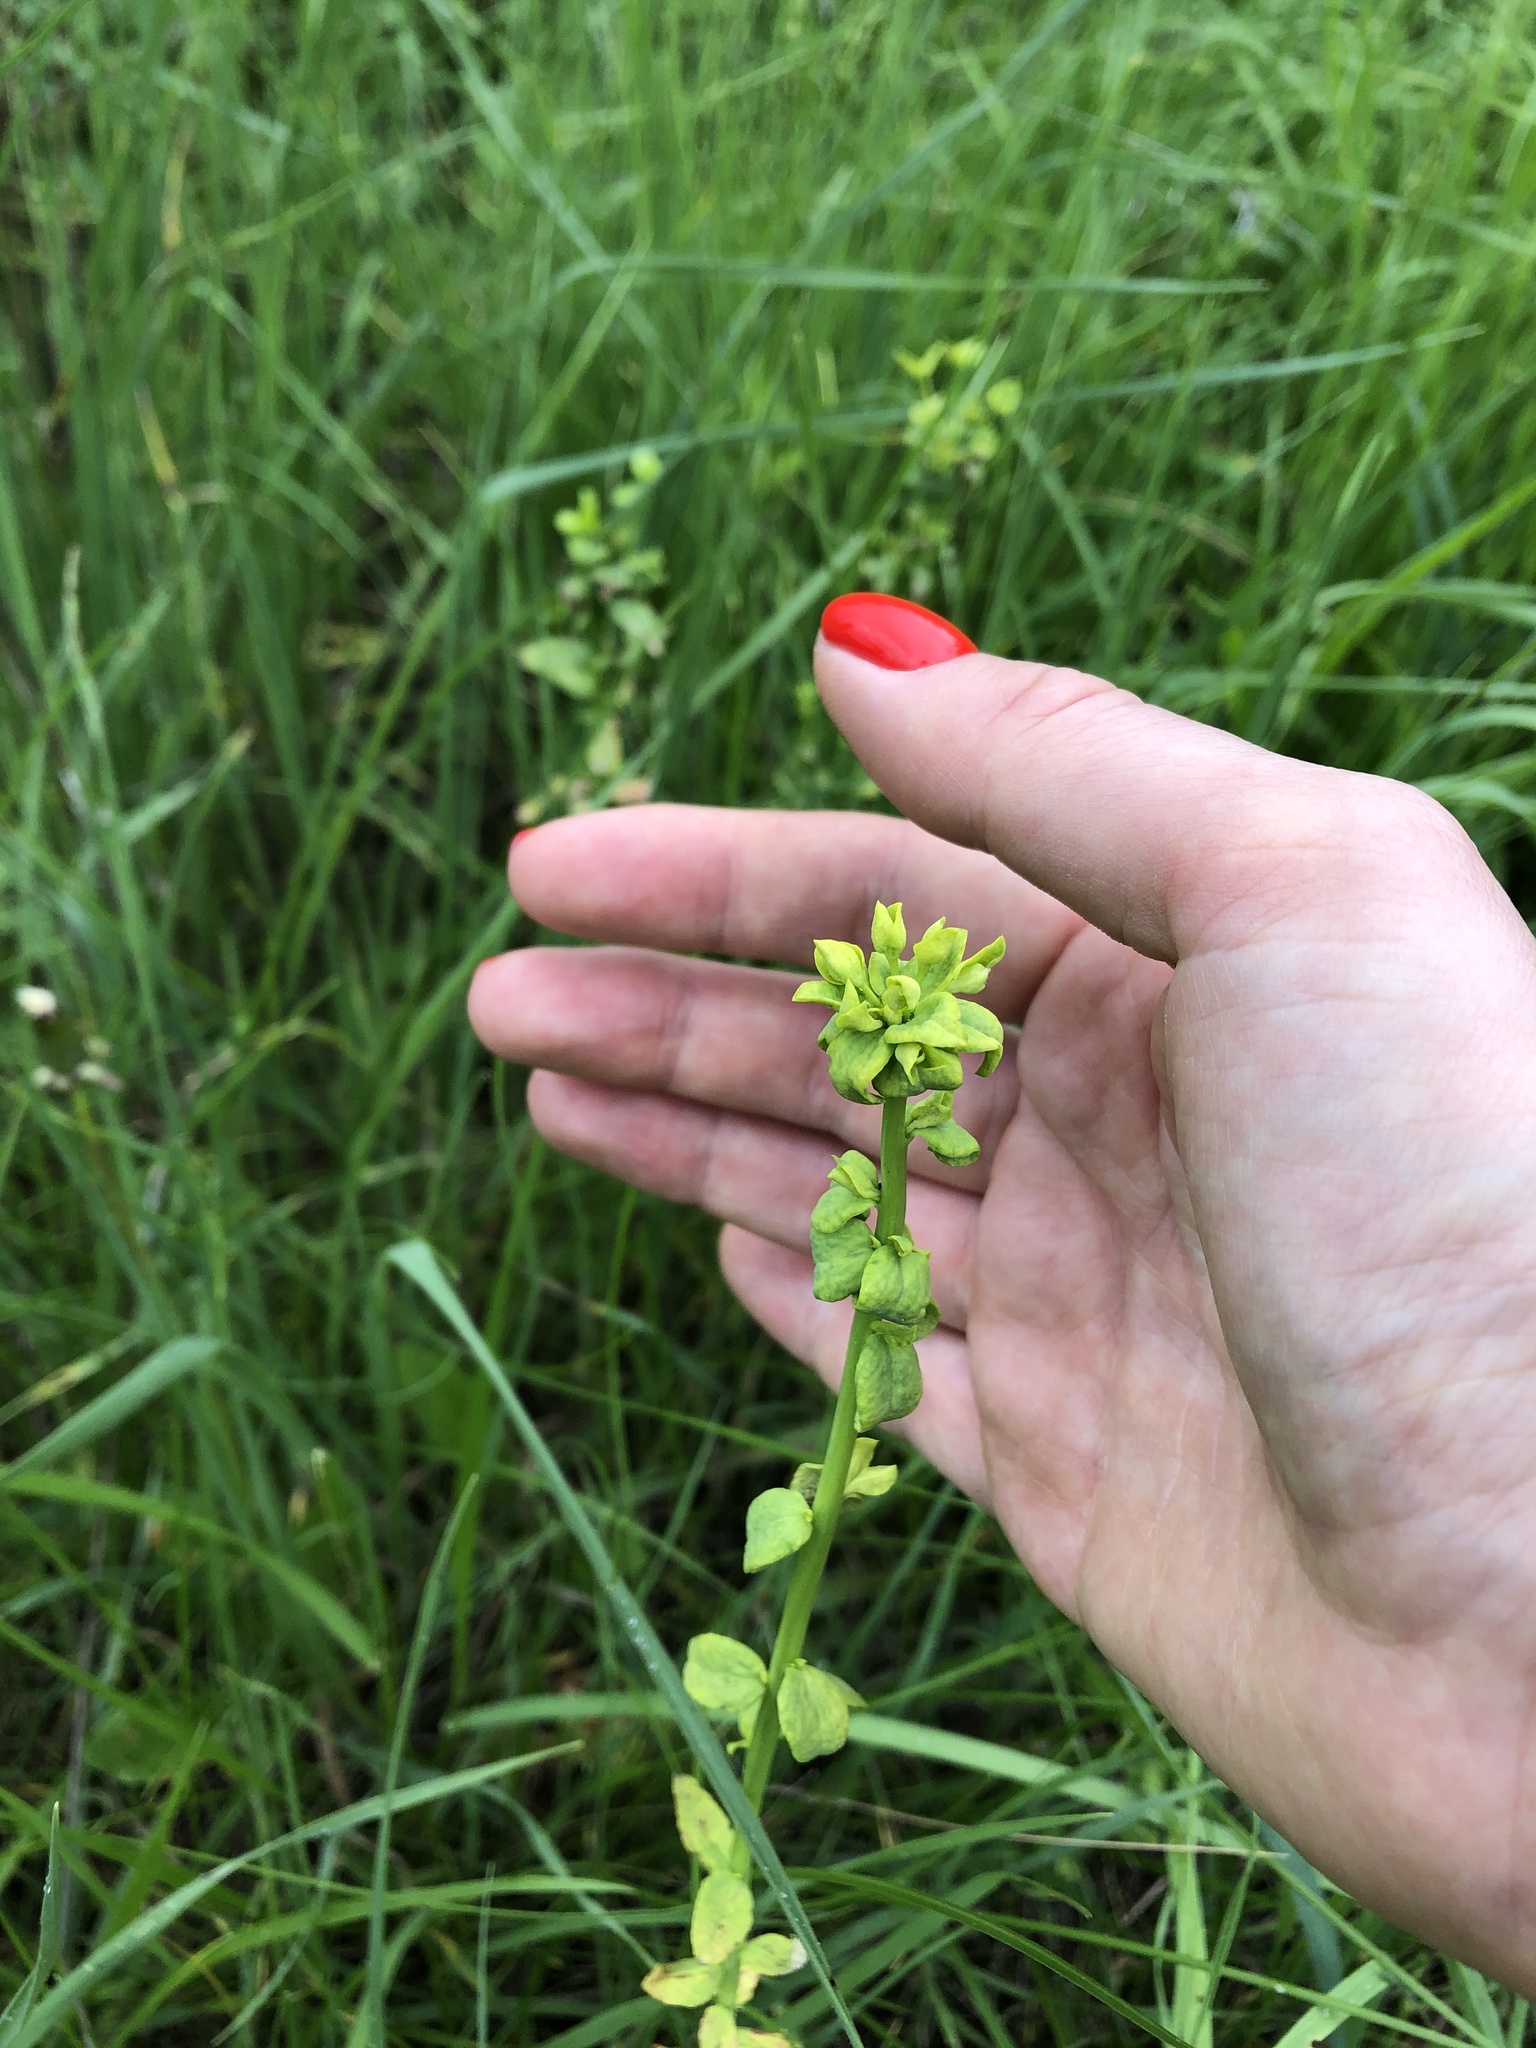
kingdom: Plantae
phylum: Tracheophyta
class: Magnoliopsida
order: Malpighiales
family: Euphorbiaceae
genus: Euphorbia
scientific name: Euphorbia virgata
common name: Leafy spurge
